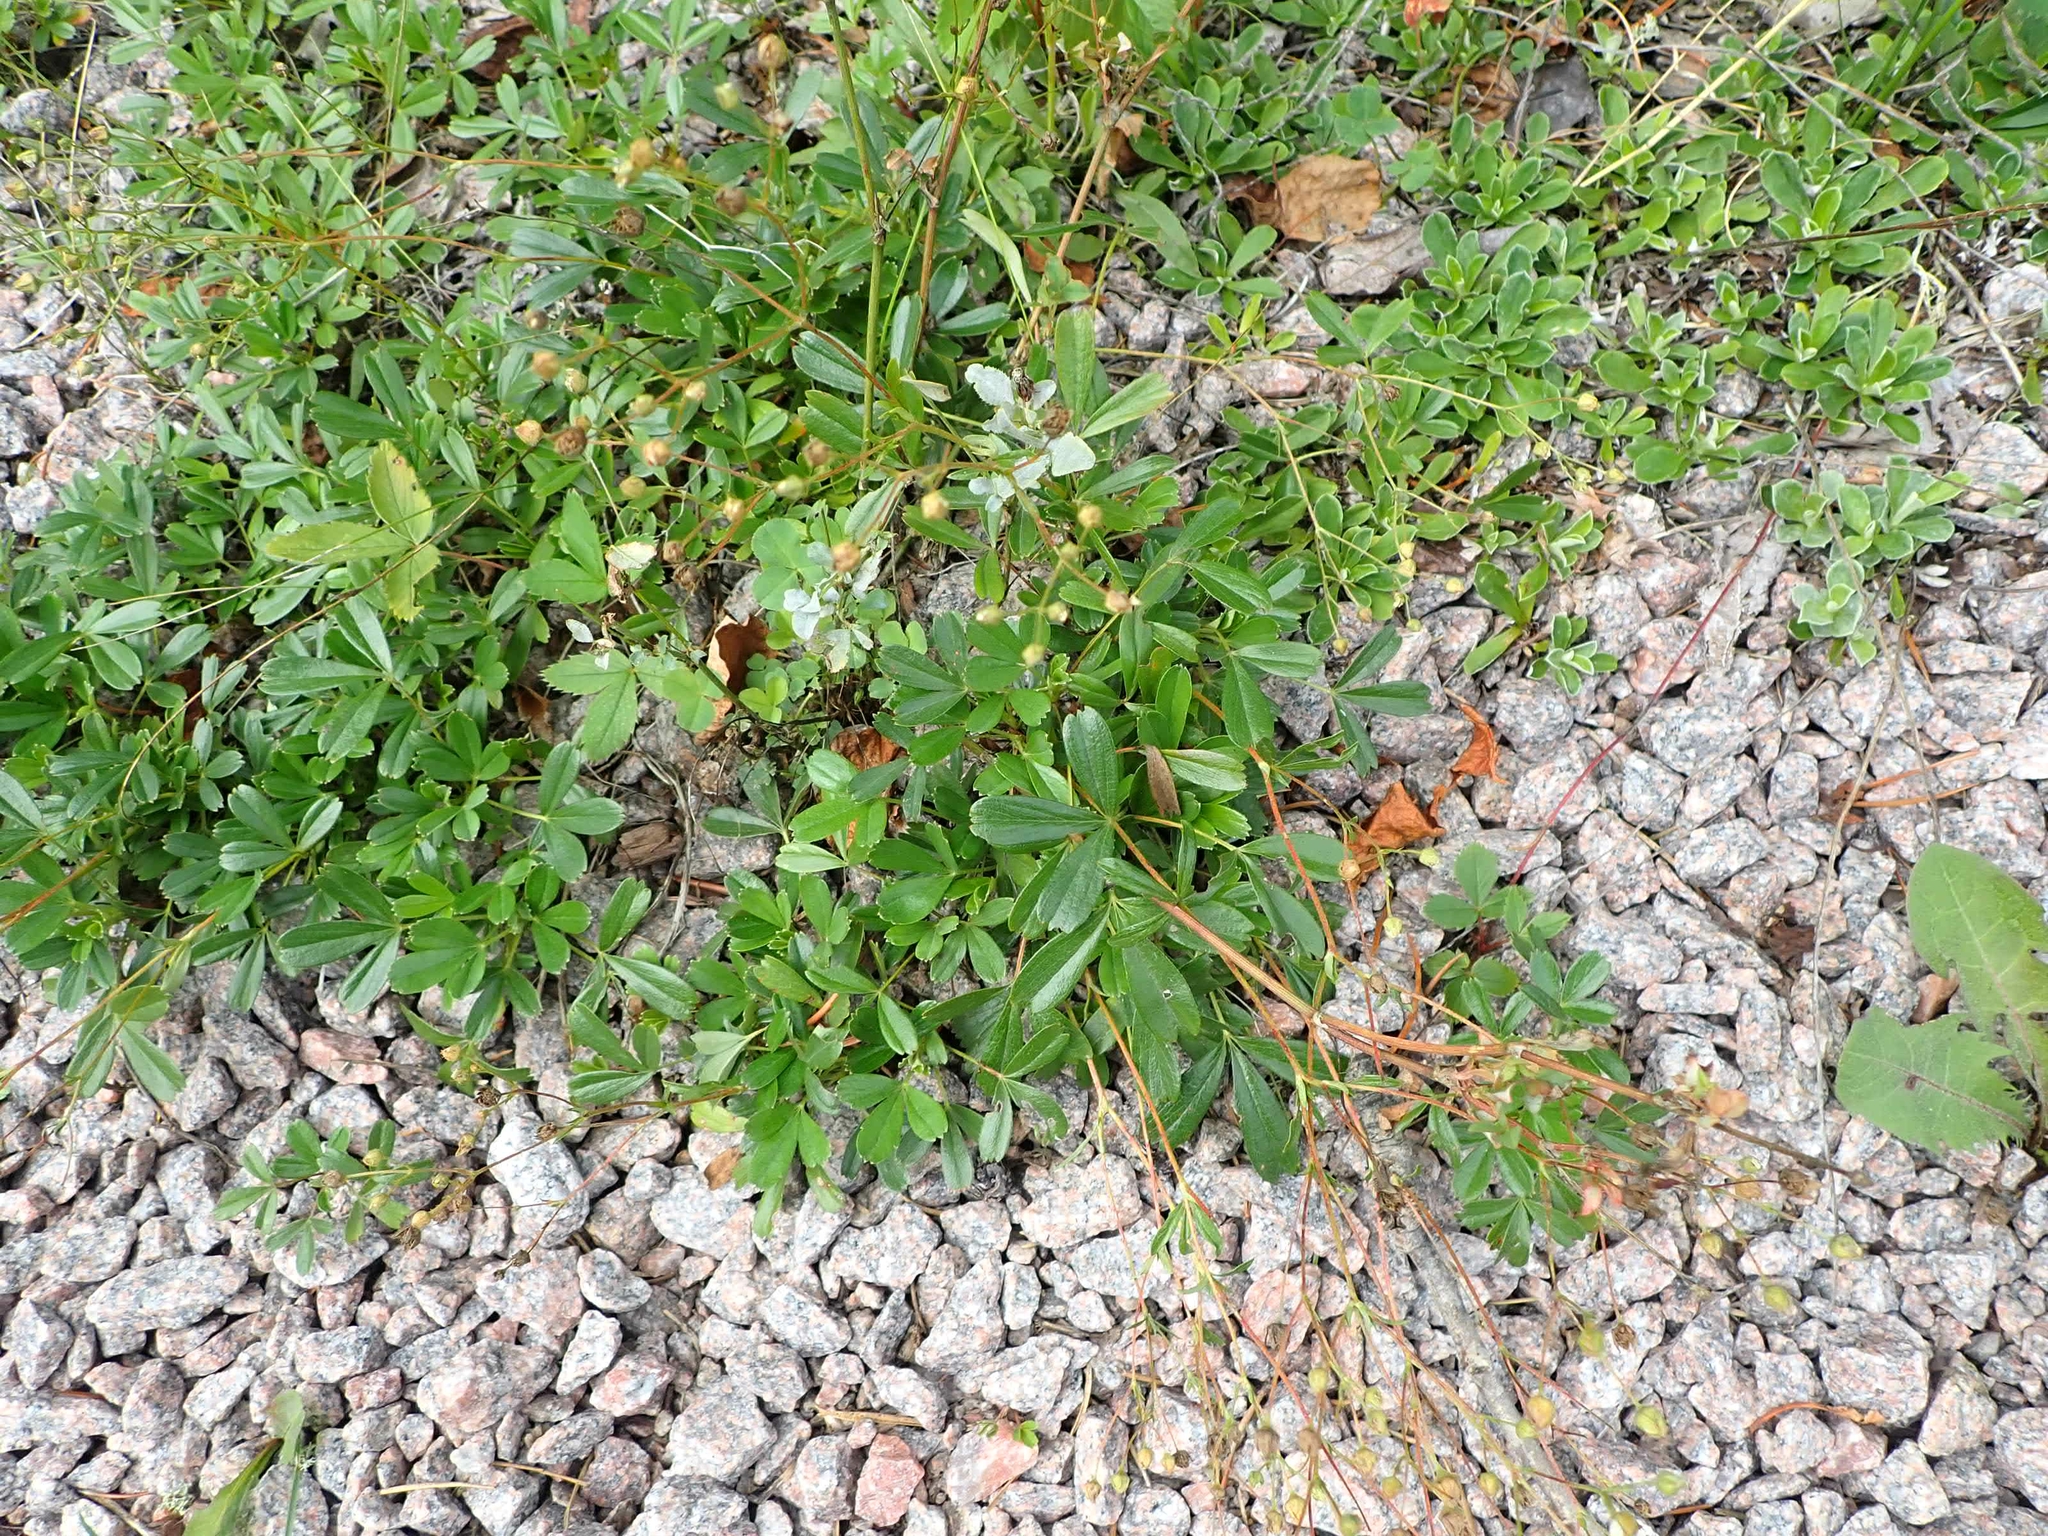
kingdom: Plantae
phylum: Tracheophyta
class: Magnoliopsida
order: Rosales
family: Rosaceae
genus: Sibbaldia
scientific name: Sibbaldia tridentata
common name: Three-toothed cinquefoil
